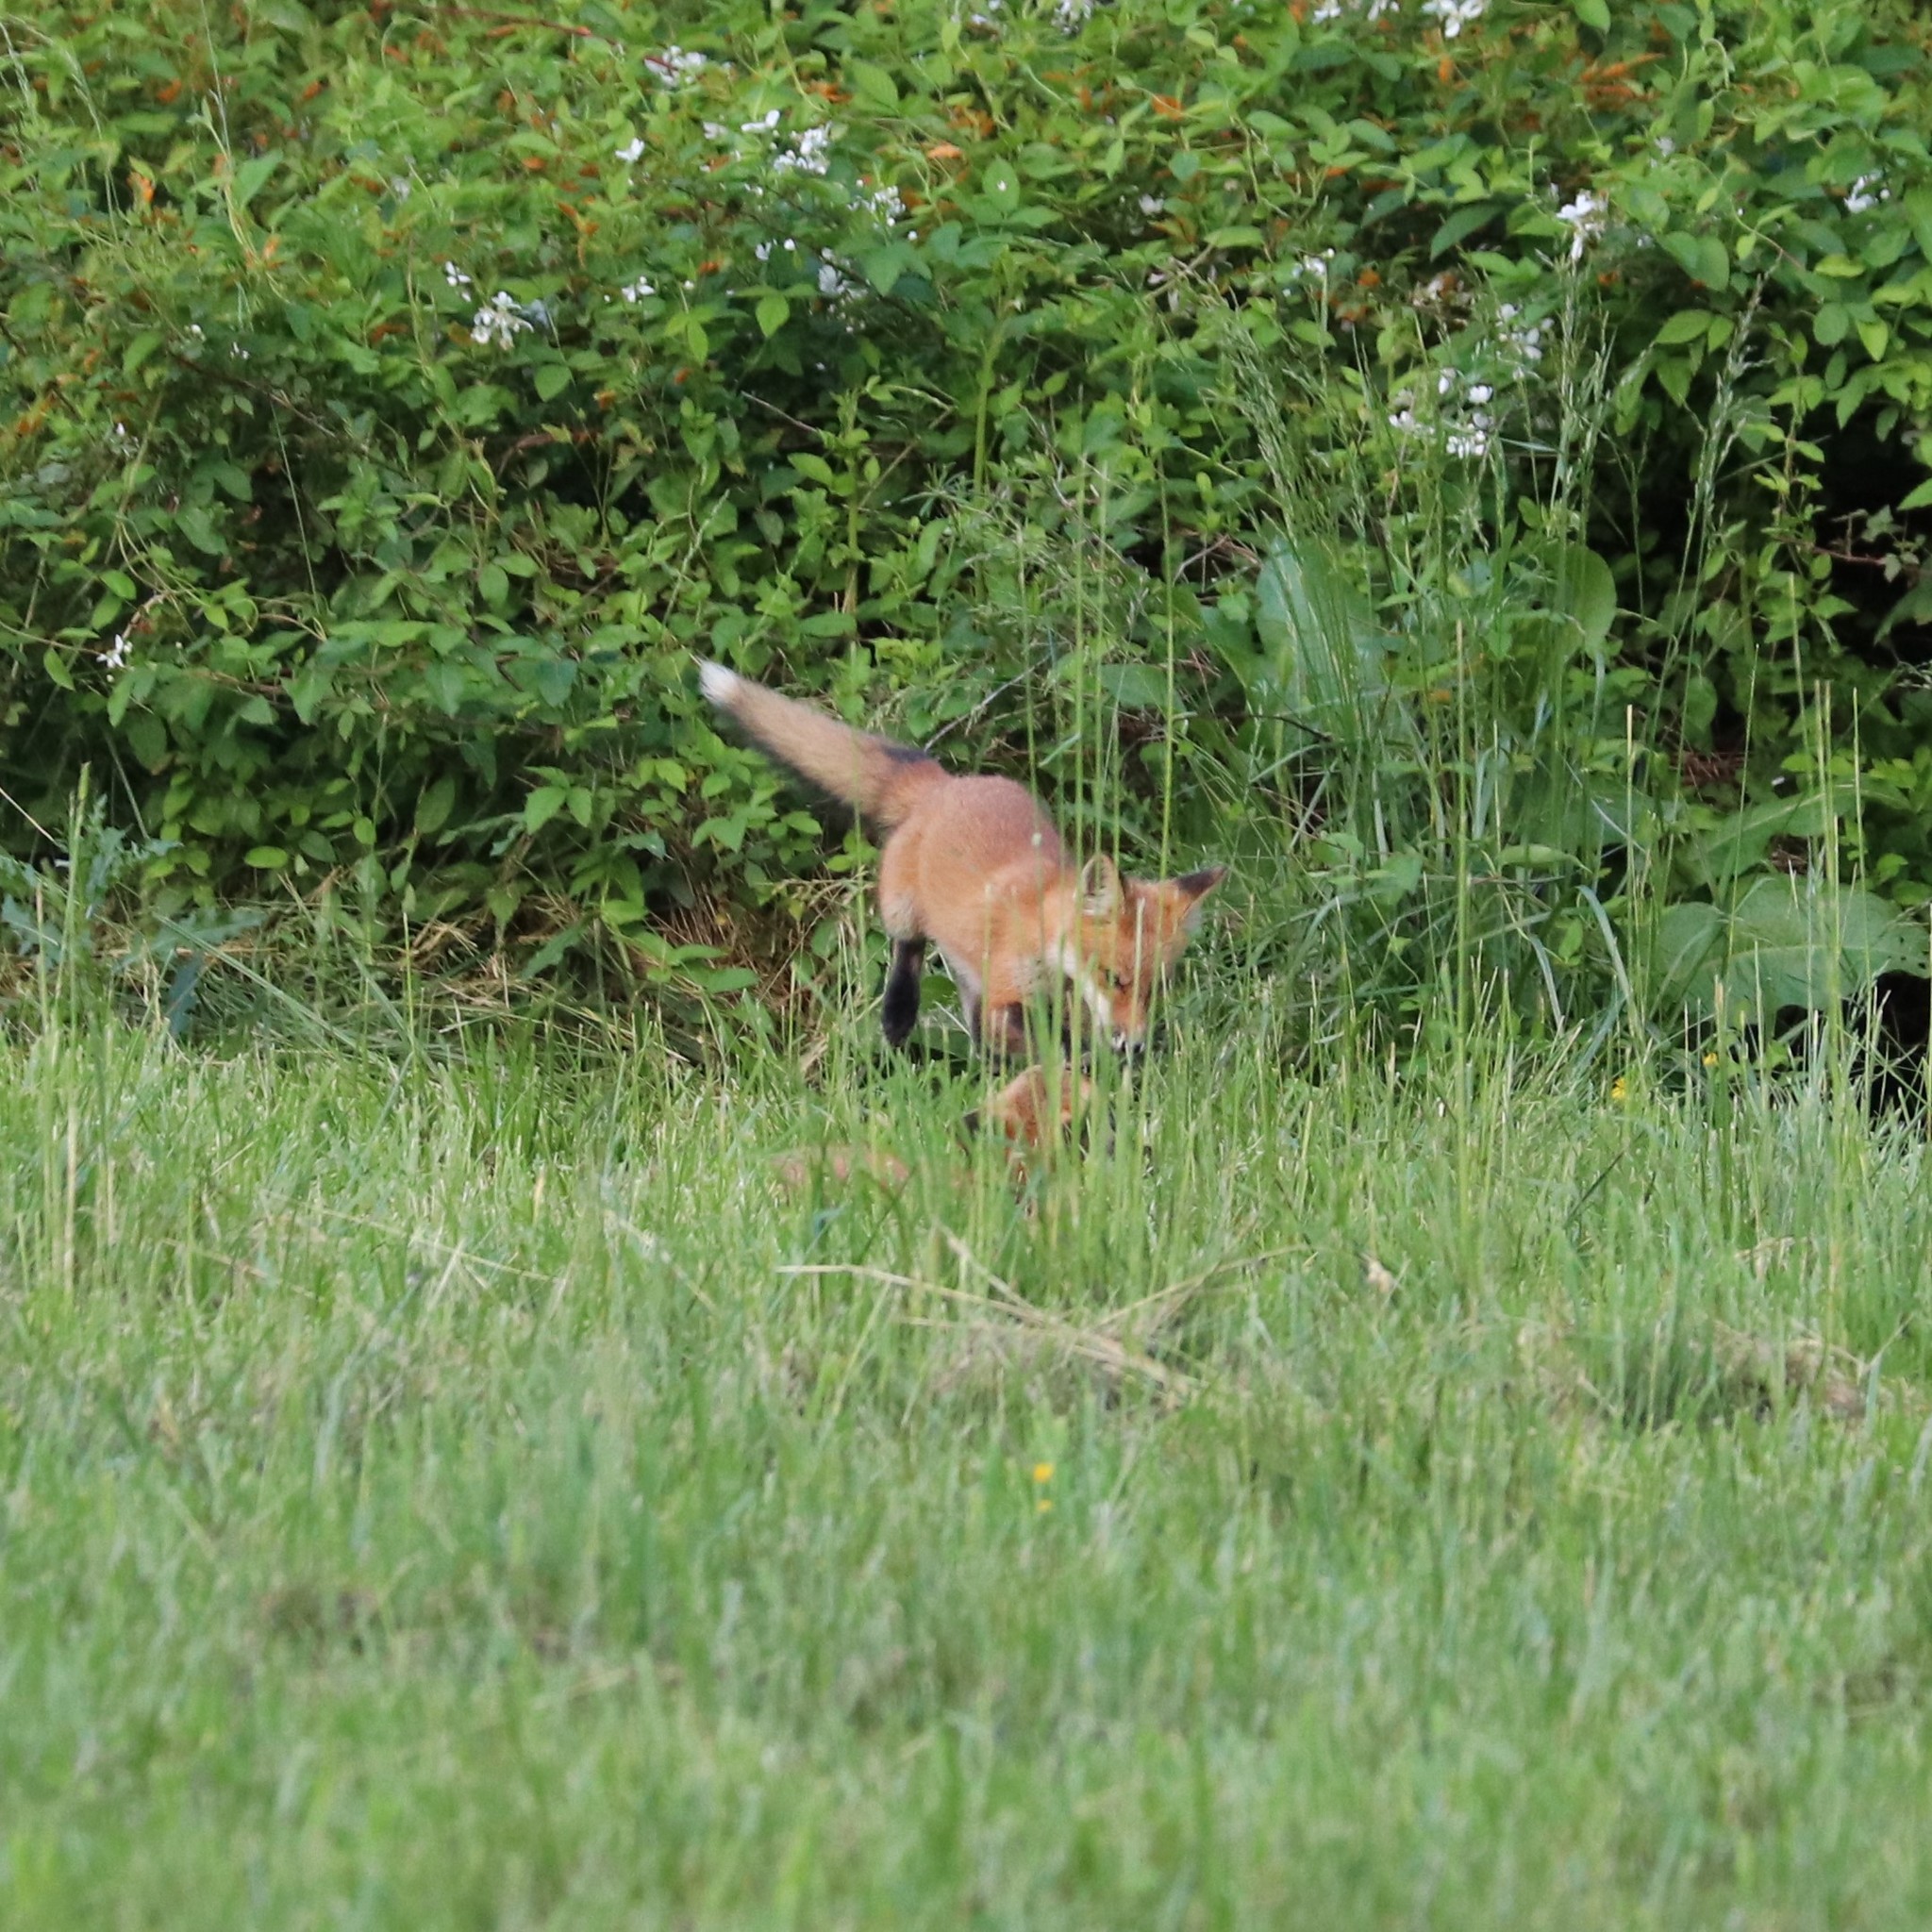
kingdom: Animalia
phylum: Chordata
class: Mammalia
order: Carnivora
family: Canidae
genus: Vulpes
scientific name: Vulpes vulpes
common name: Red fox
